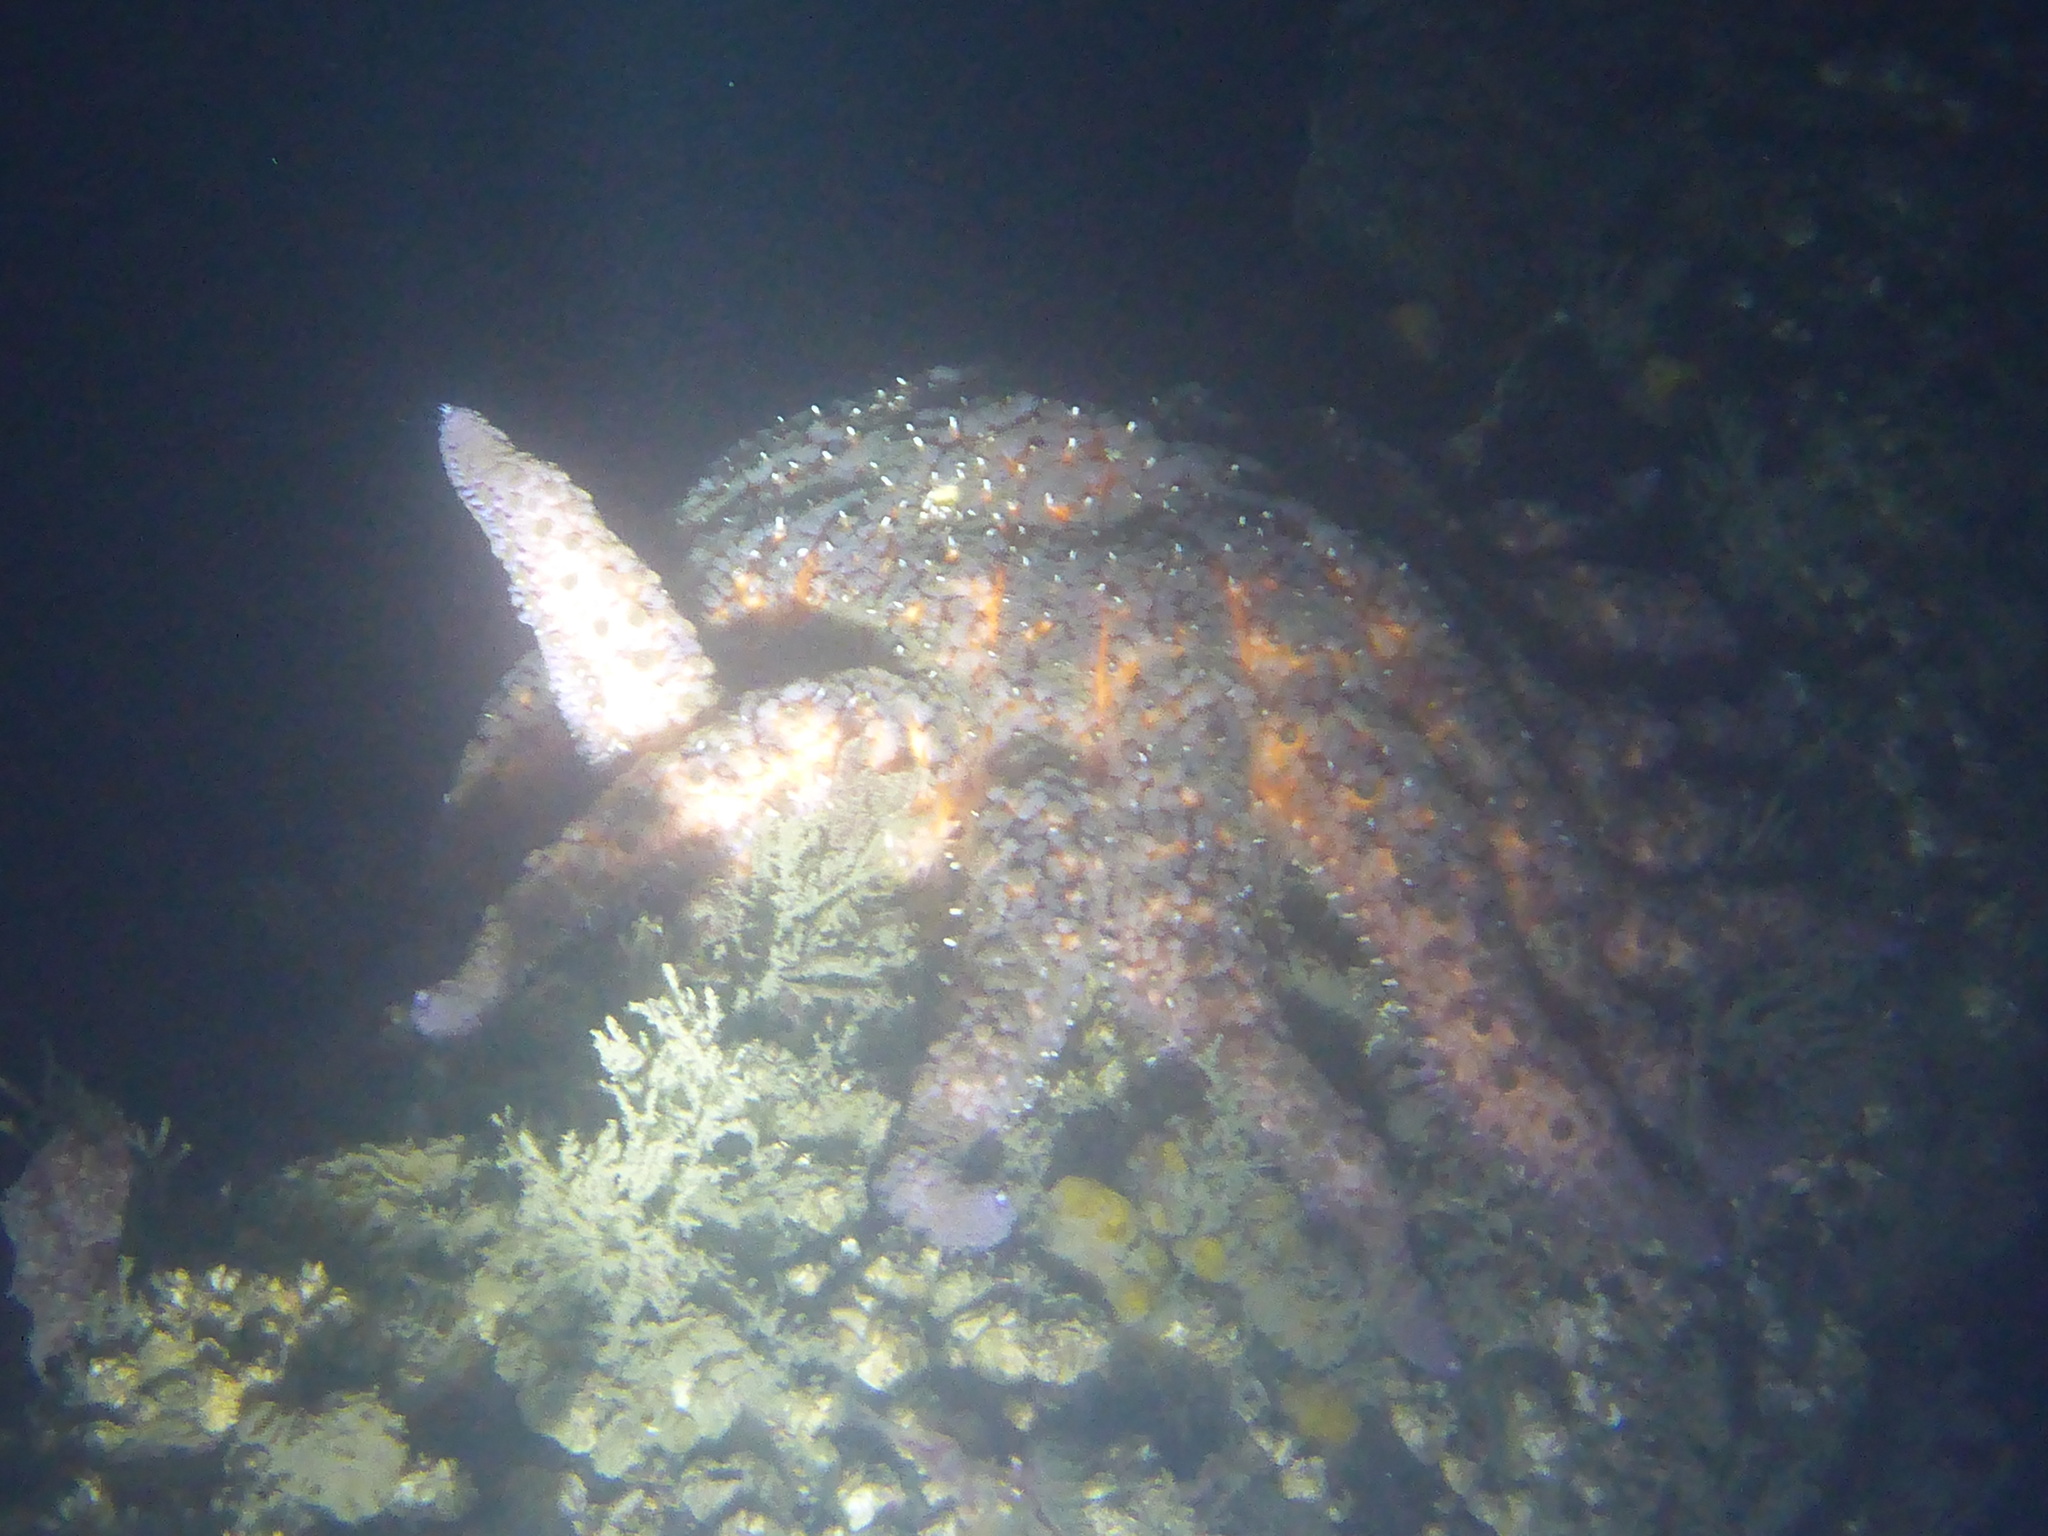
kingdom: Animalia
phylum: Echinodermata
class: Asteroidea
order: Forcipulatida
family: Asteriidae
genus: Pycnopodia
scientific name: Pycnopodia helianthoides
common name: Rag mop
